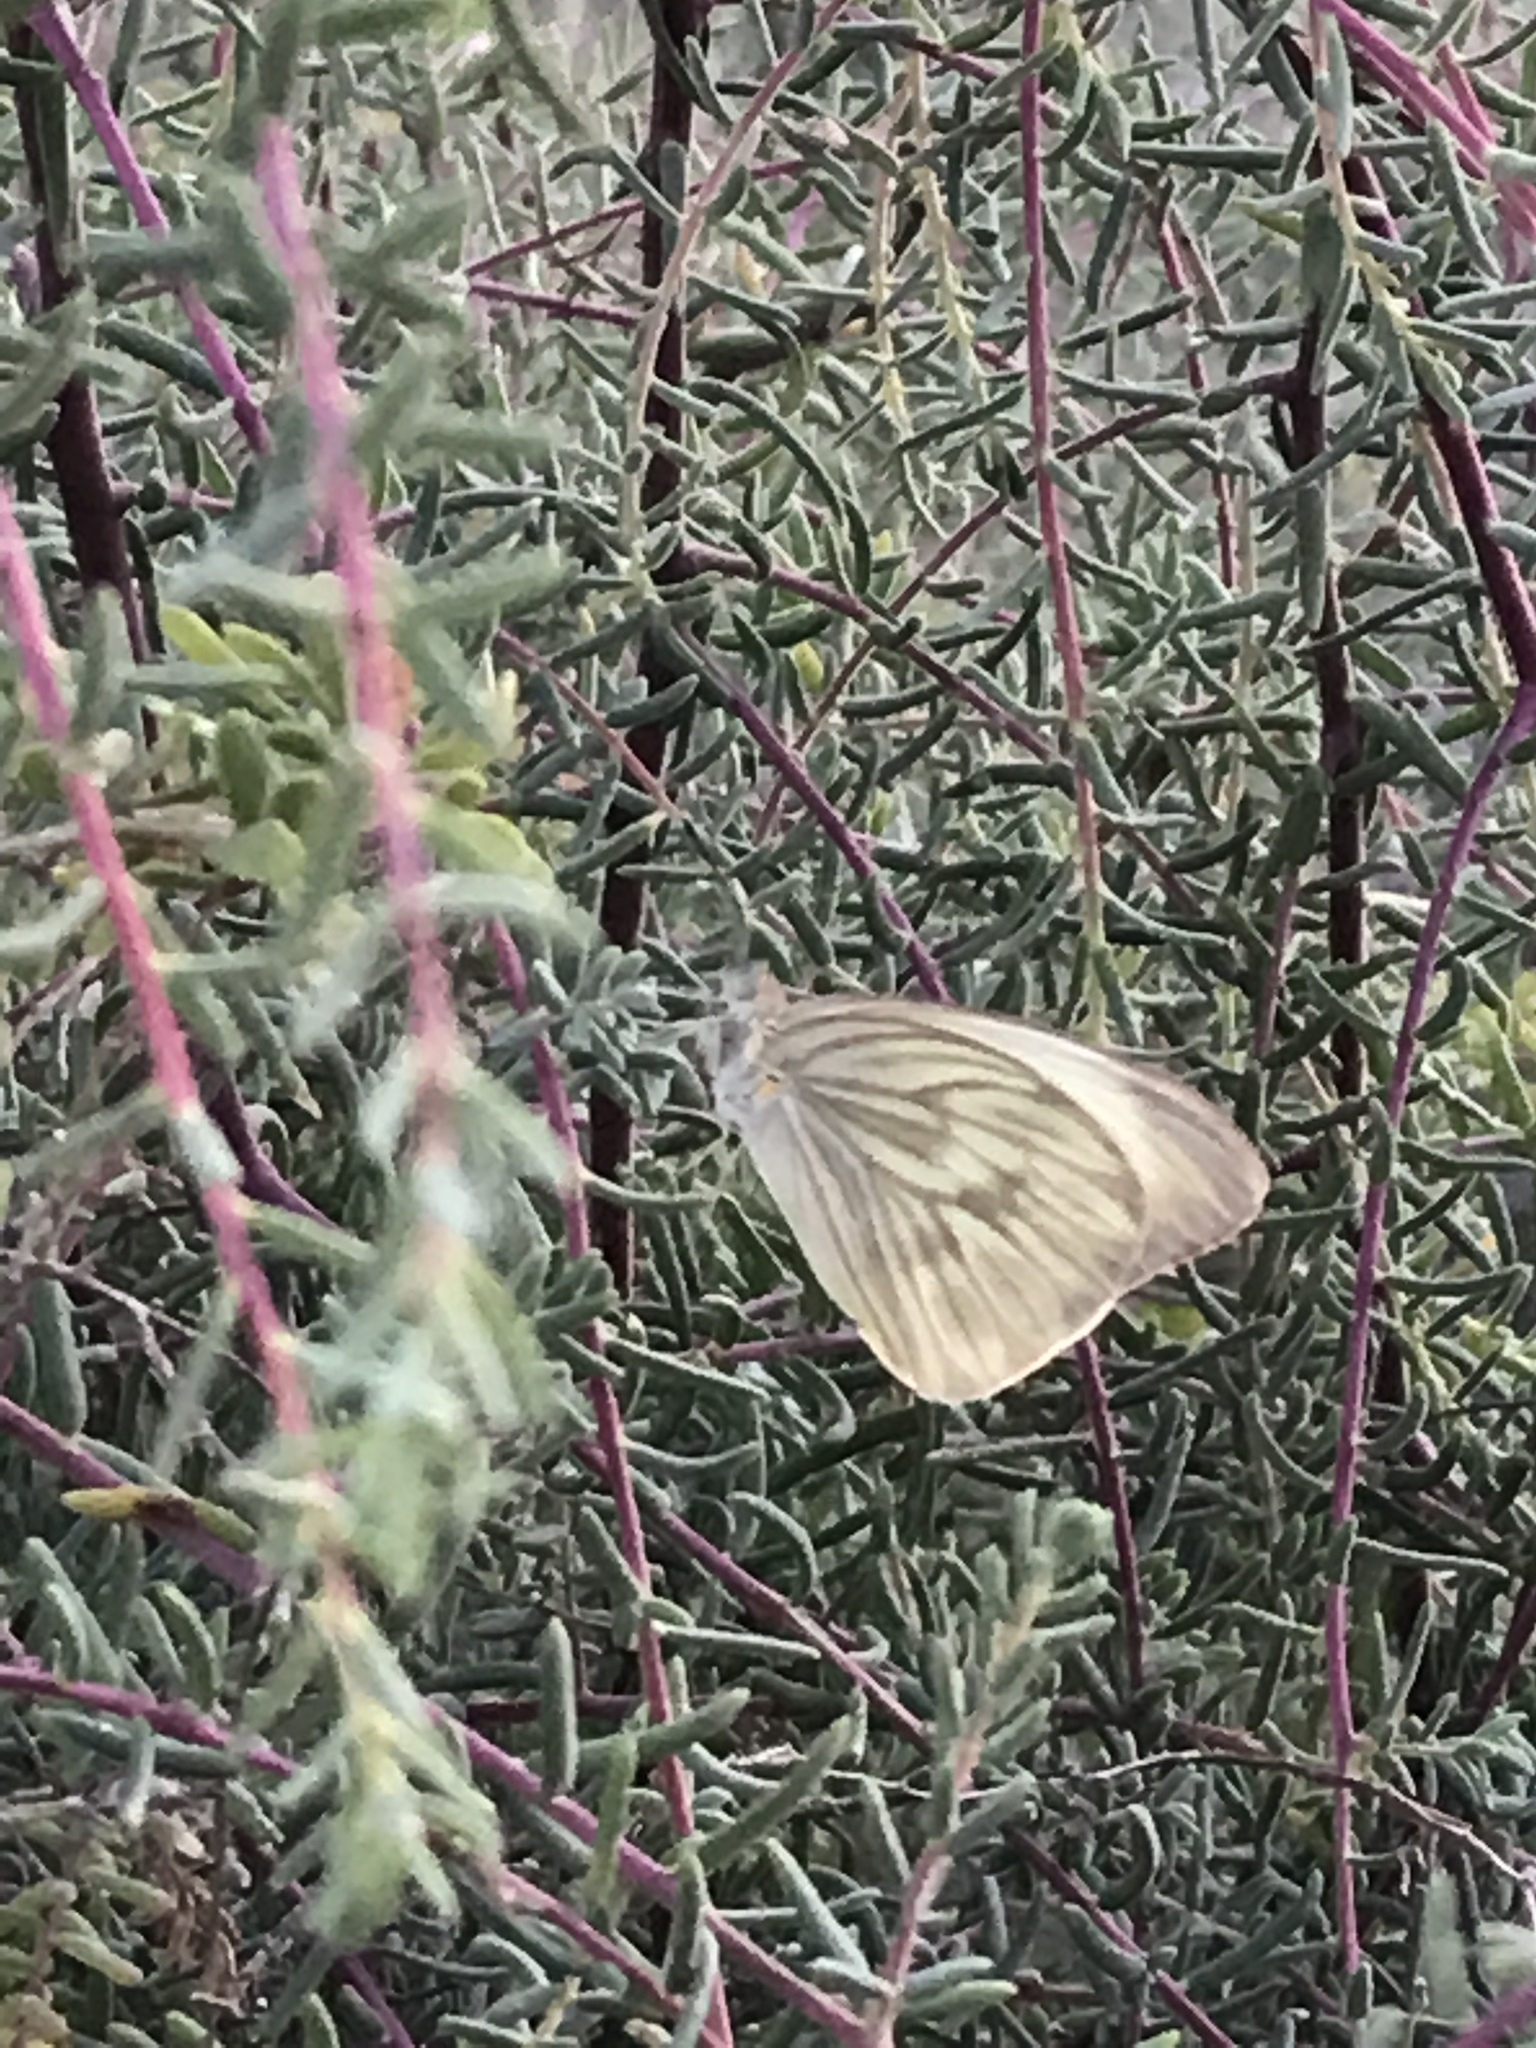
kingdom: Animalia
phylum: Arthropoda
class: Insecta
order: Lepidoptera
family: Pieridae
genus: Ascia
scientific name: Ascia monuste
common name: Great southern white
